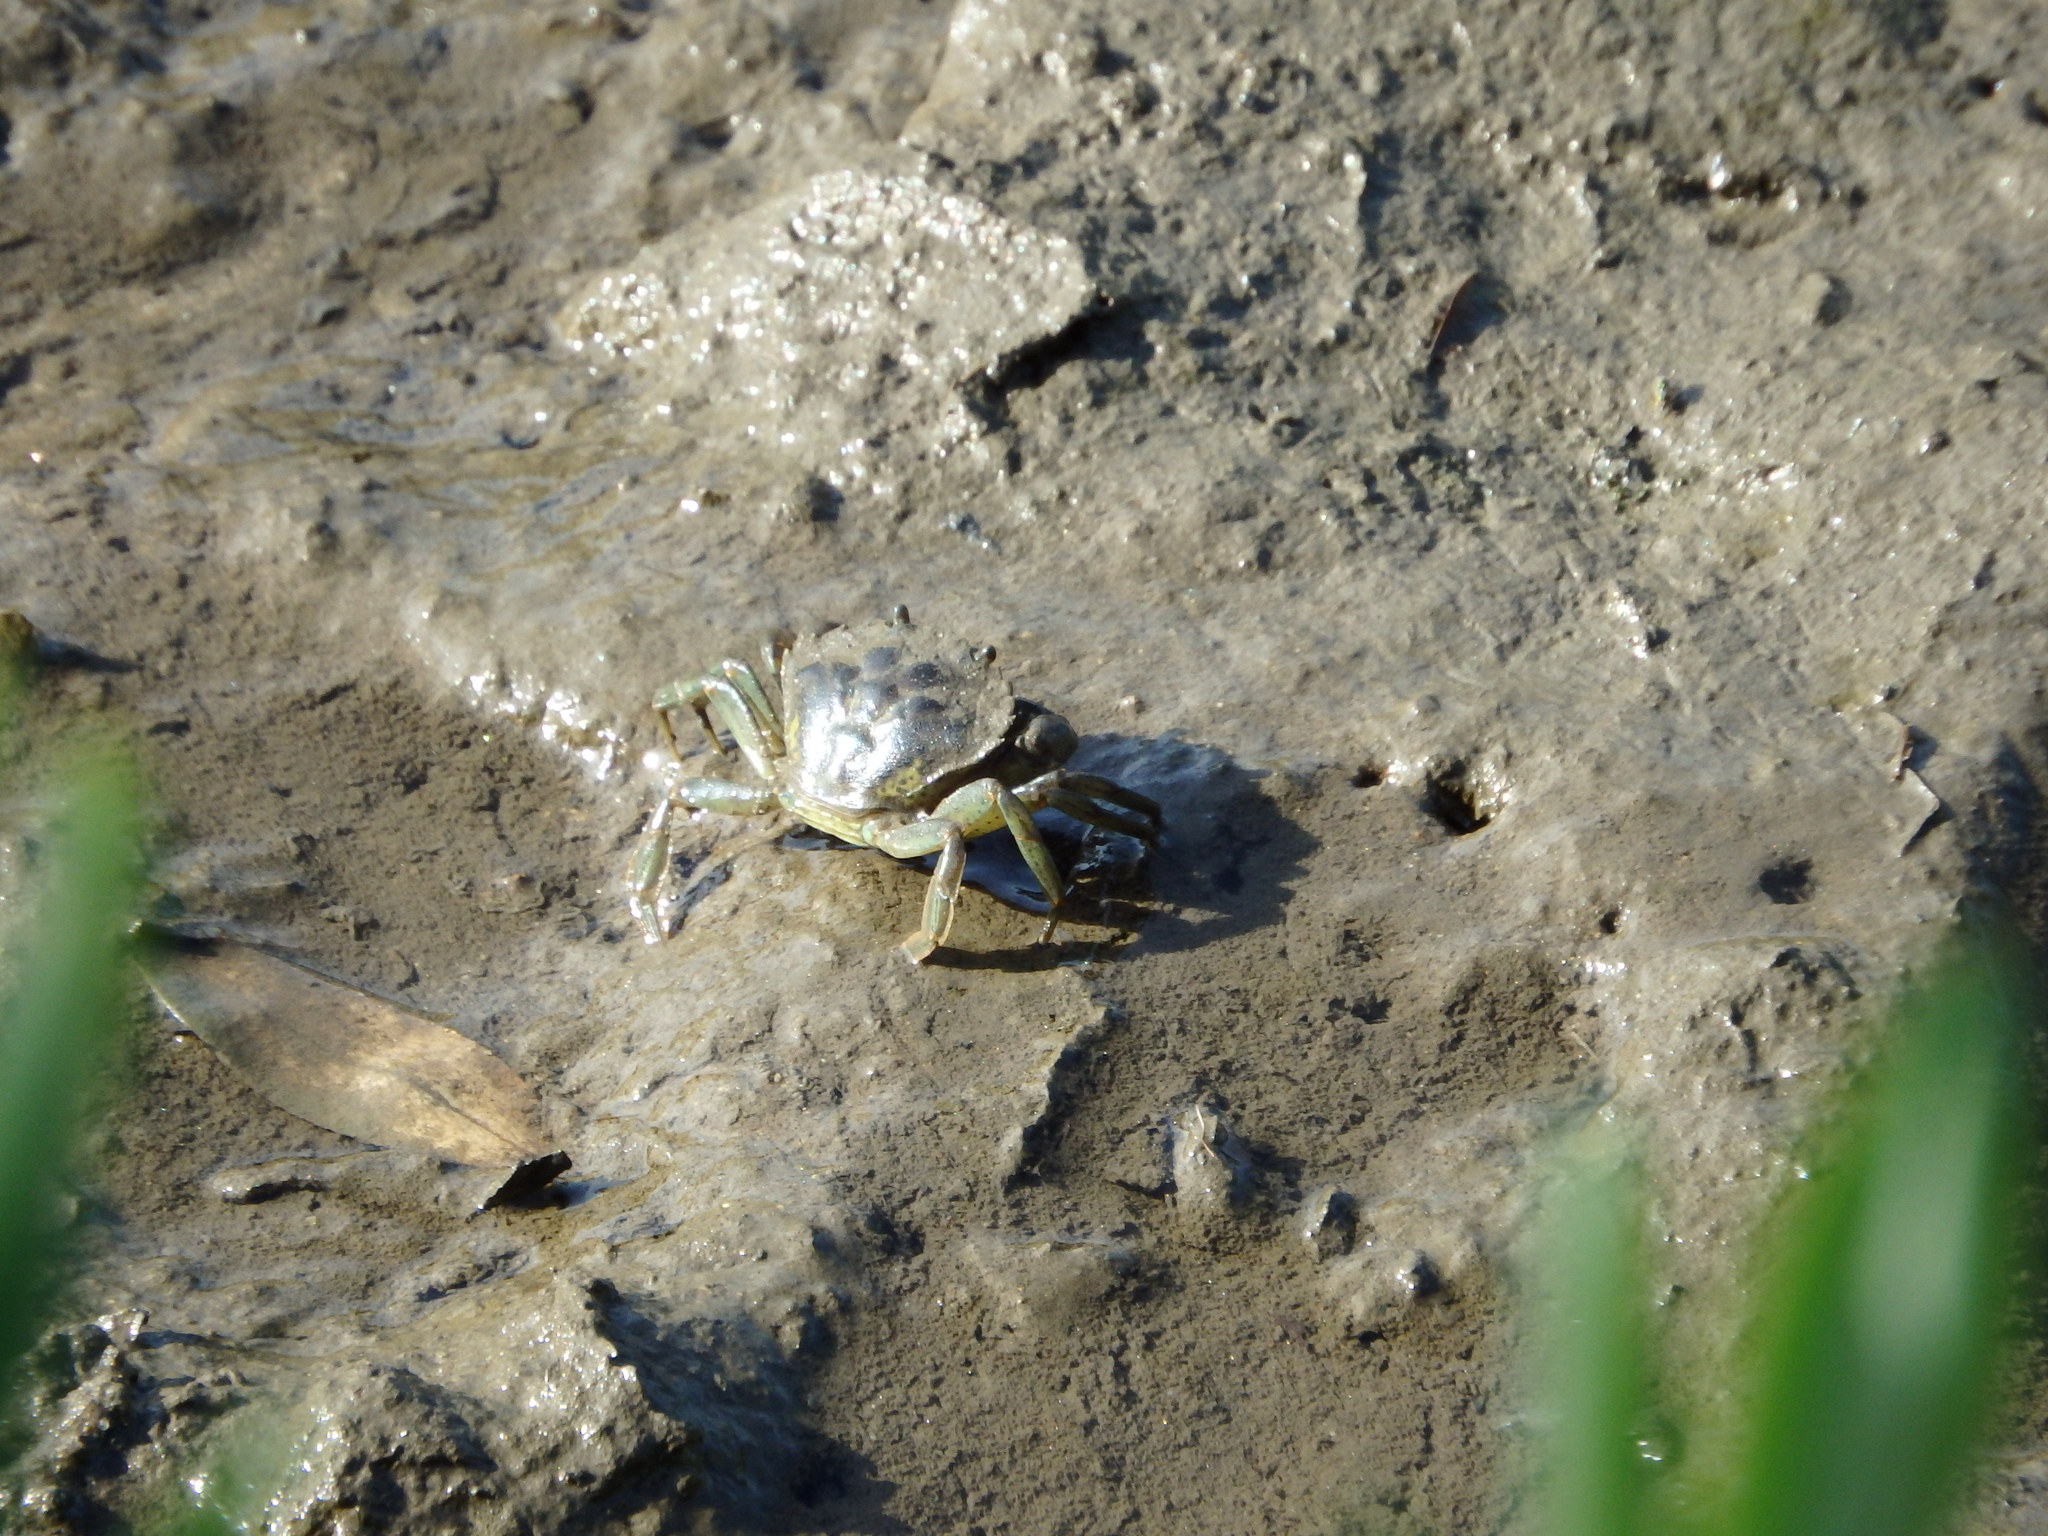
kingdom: Animalia
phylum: Arthropoda
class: Malacostraca
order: Decapoda
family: Carcinidae
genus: Carcinus
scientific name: Carcinus maenas
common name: European green crab
